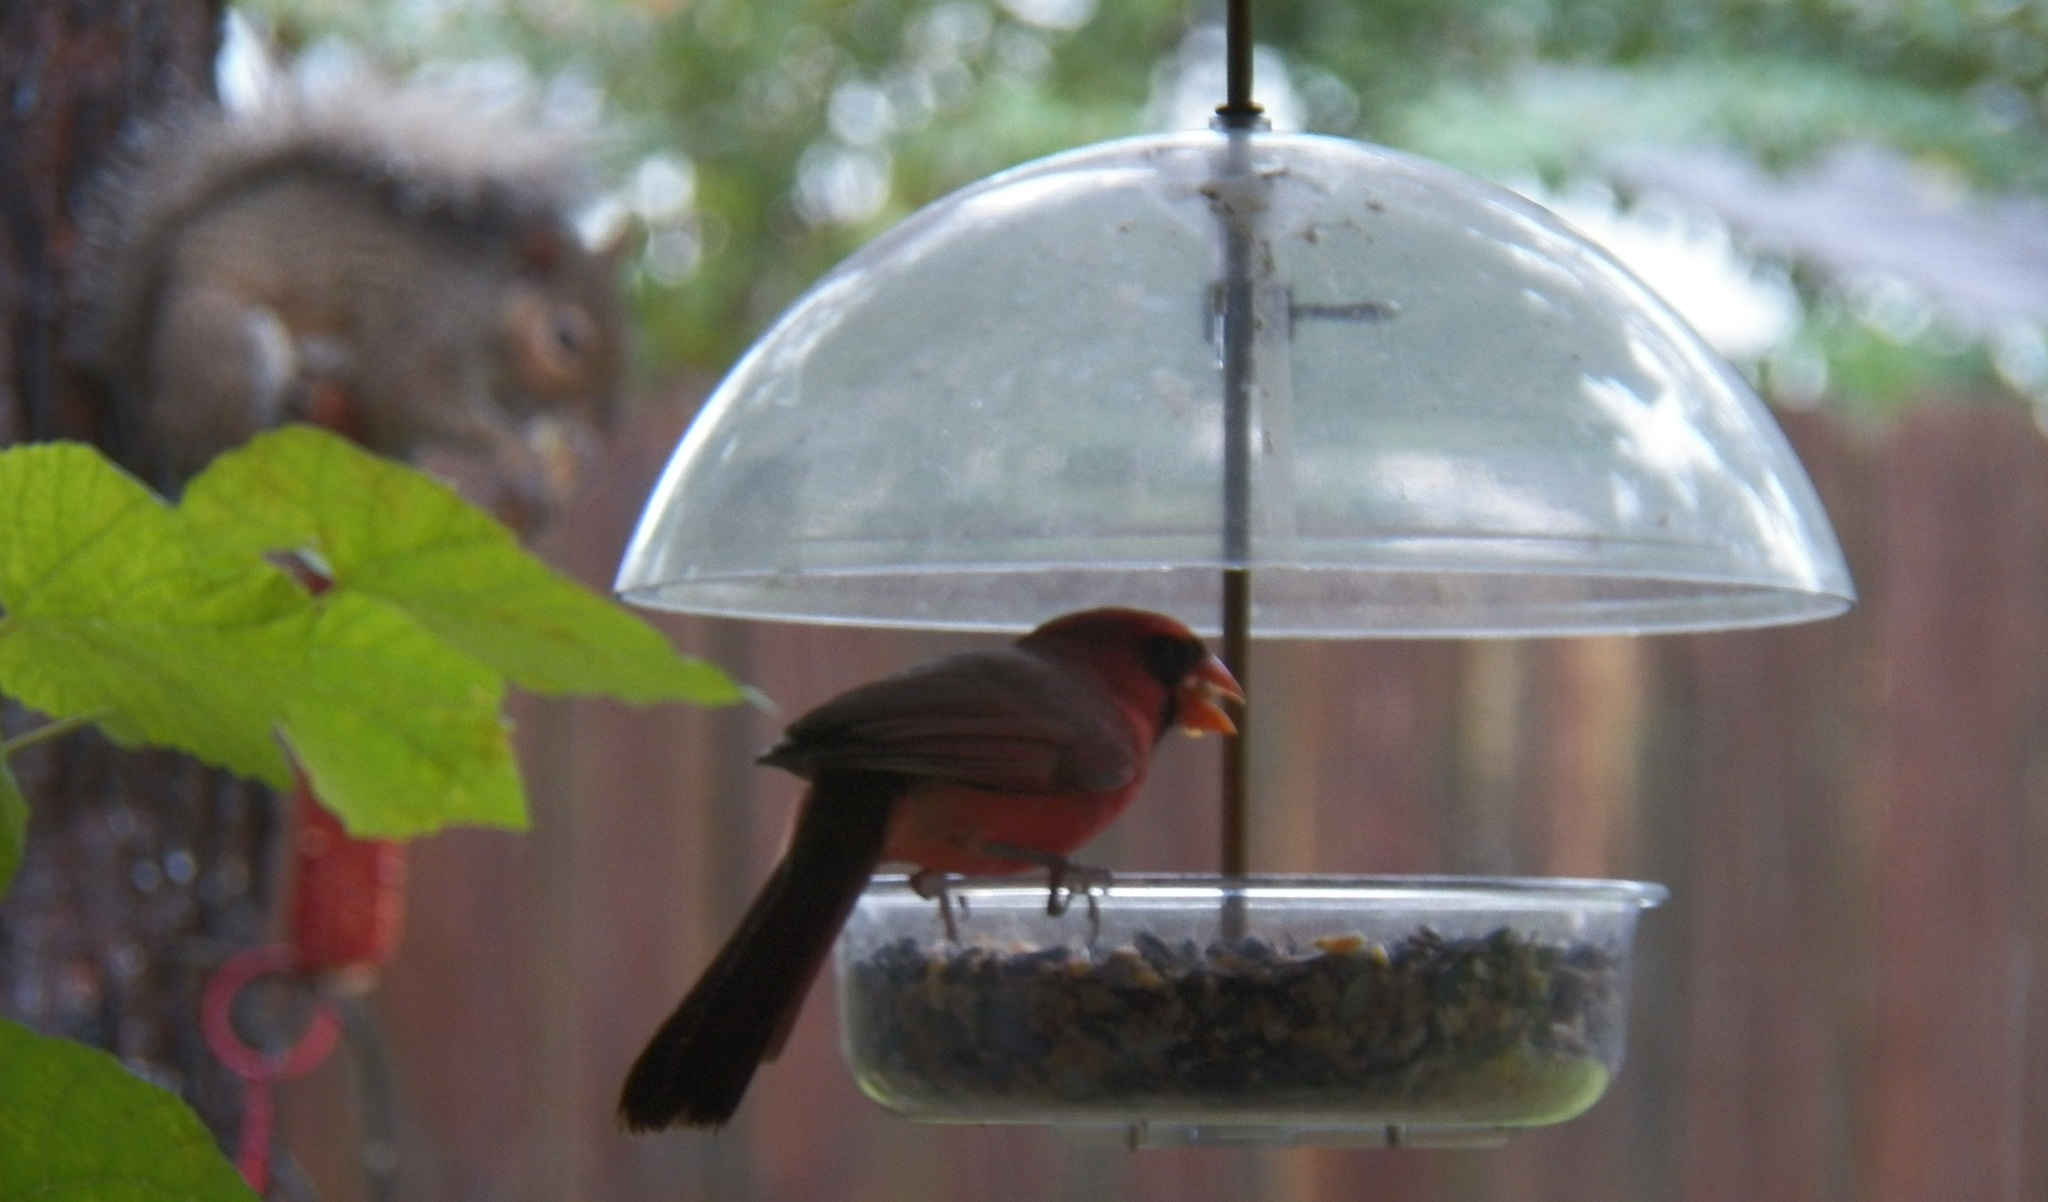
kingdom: Animalia
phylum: Chordata
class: Aves
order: Passeriformes
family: Cardinalidae
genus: Cardinalis
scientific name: Cardinalis cardinalis
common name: Northern cardinal
